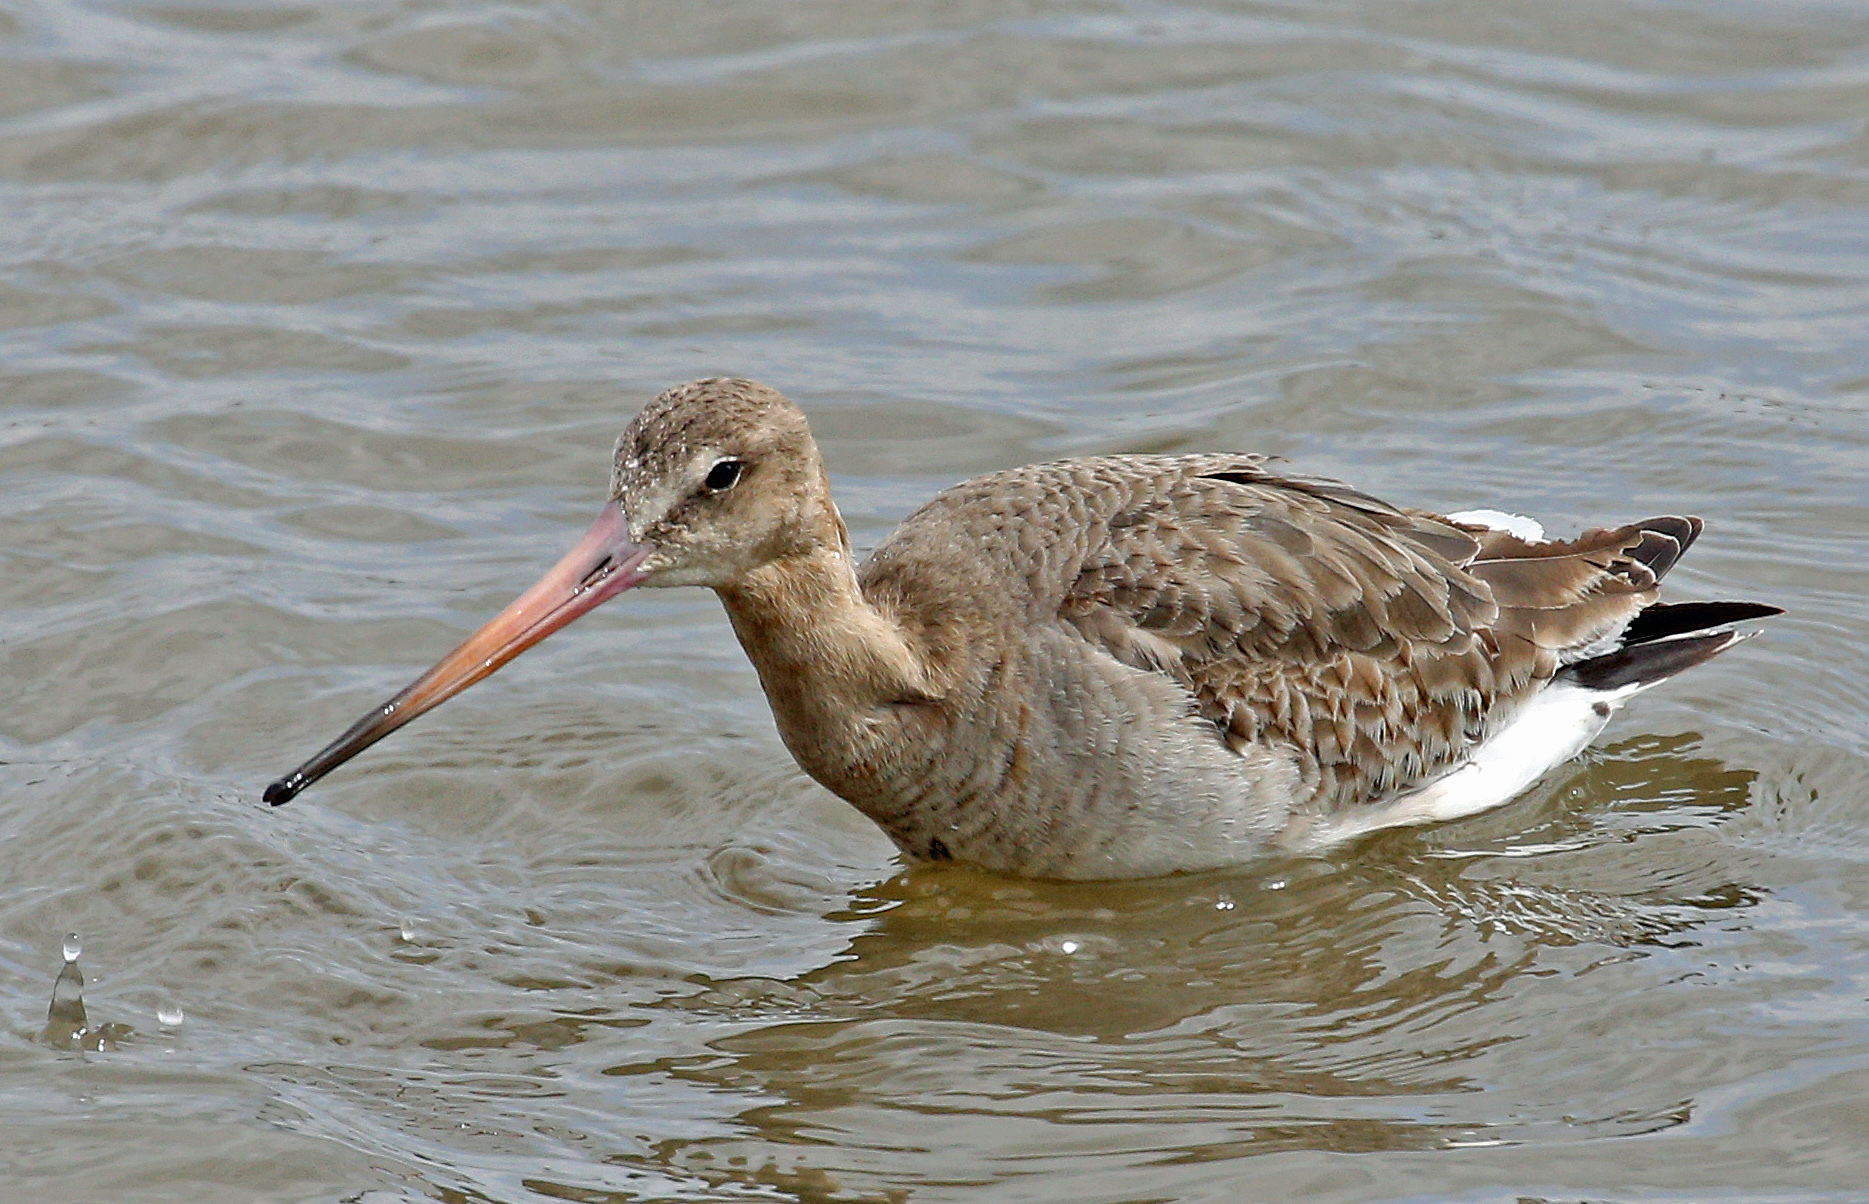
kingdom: Animalia
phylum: Chordata
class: Aves
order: Charadriiformes
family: Scolopacidae
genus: Limosa
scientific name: Limosa limosa
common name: Black-tailed godwit
